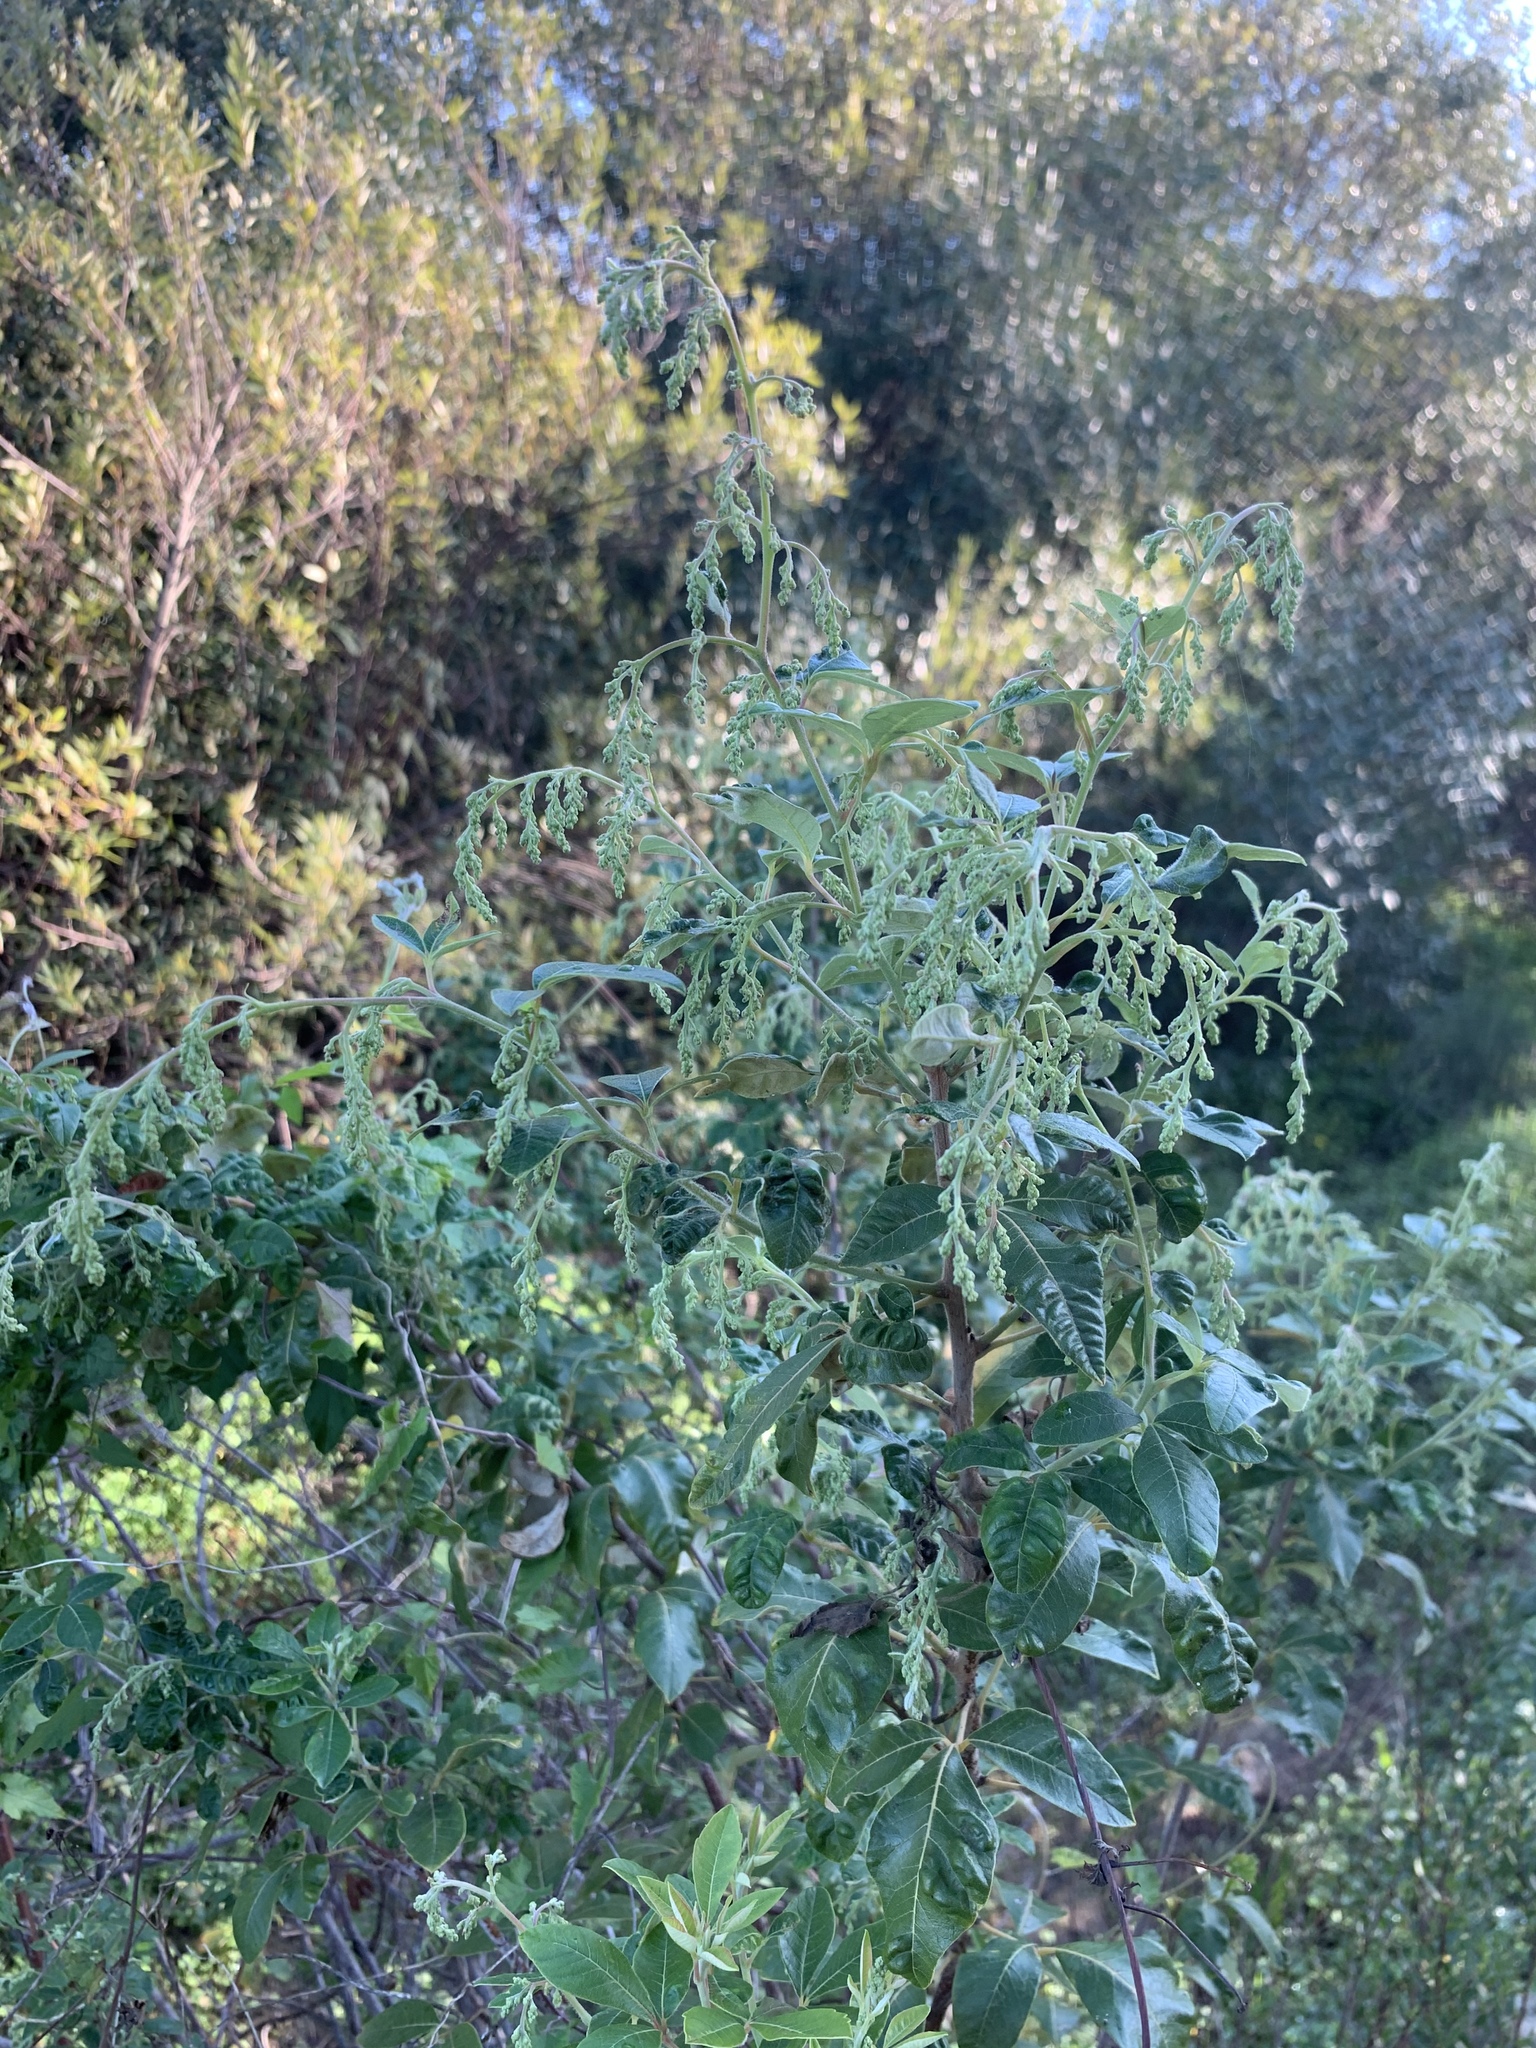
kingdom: Plantae
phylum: Tracheophyta
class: Magnoliopsida
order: Sapindales
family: Anacardiaceae
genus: Searsia
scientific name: Searsia tomentosa
